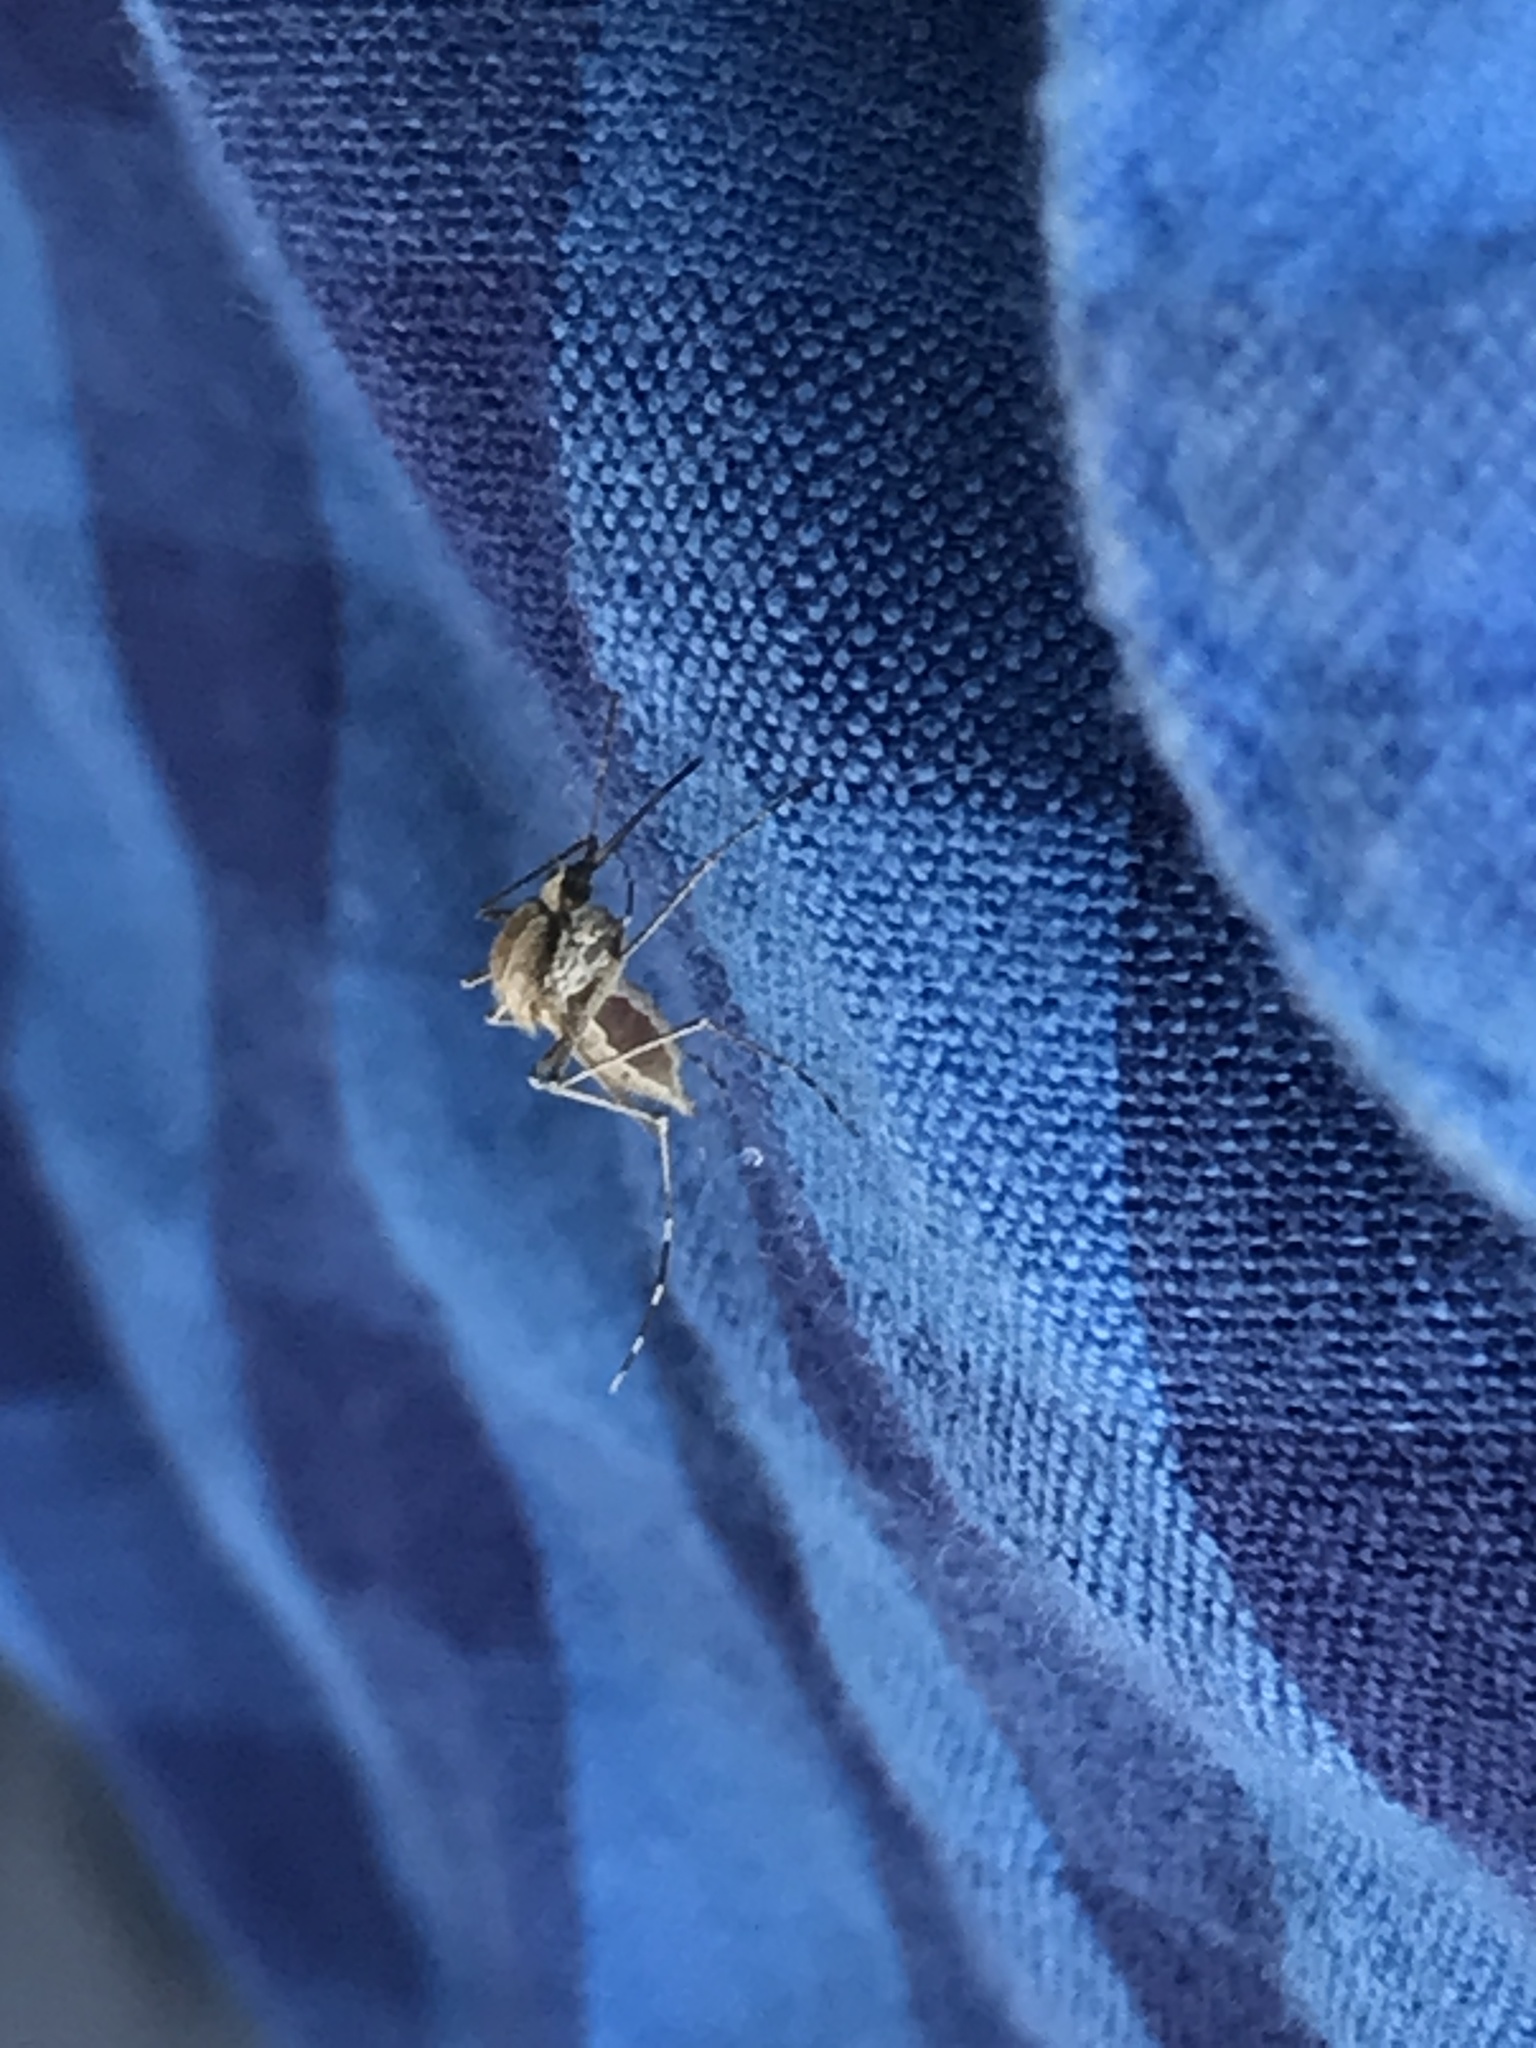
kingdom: Animalia
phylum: Arthropoda
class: Insecta
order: Diptera
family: Culicidae
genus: Aedes
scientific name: Aedes nigromaculis
